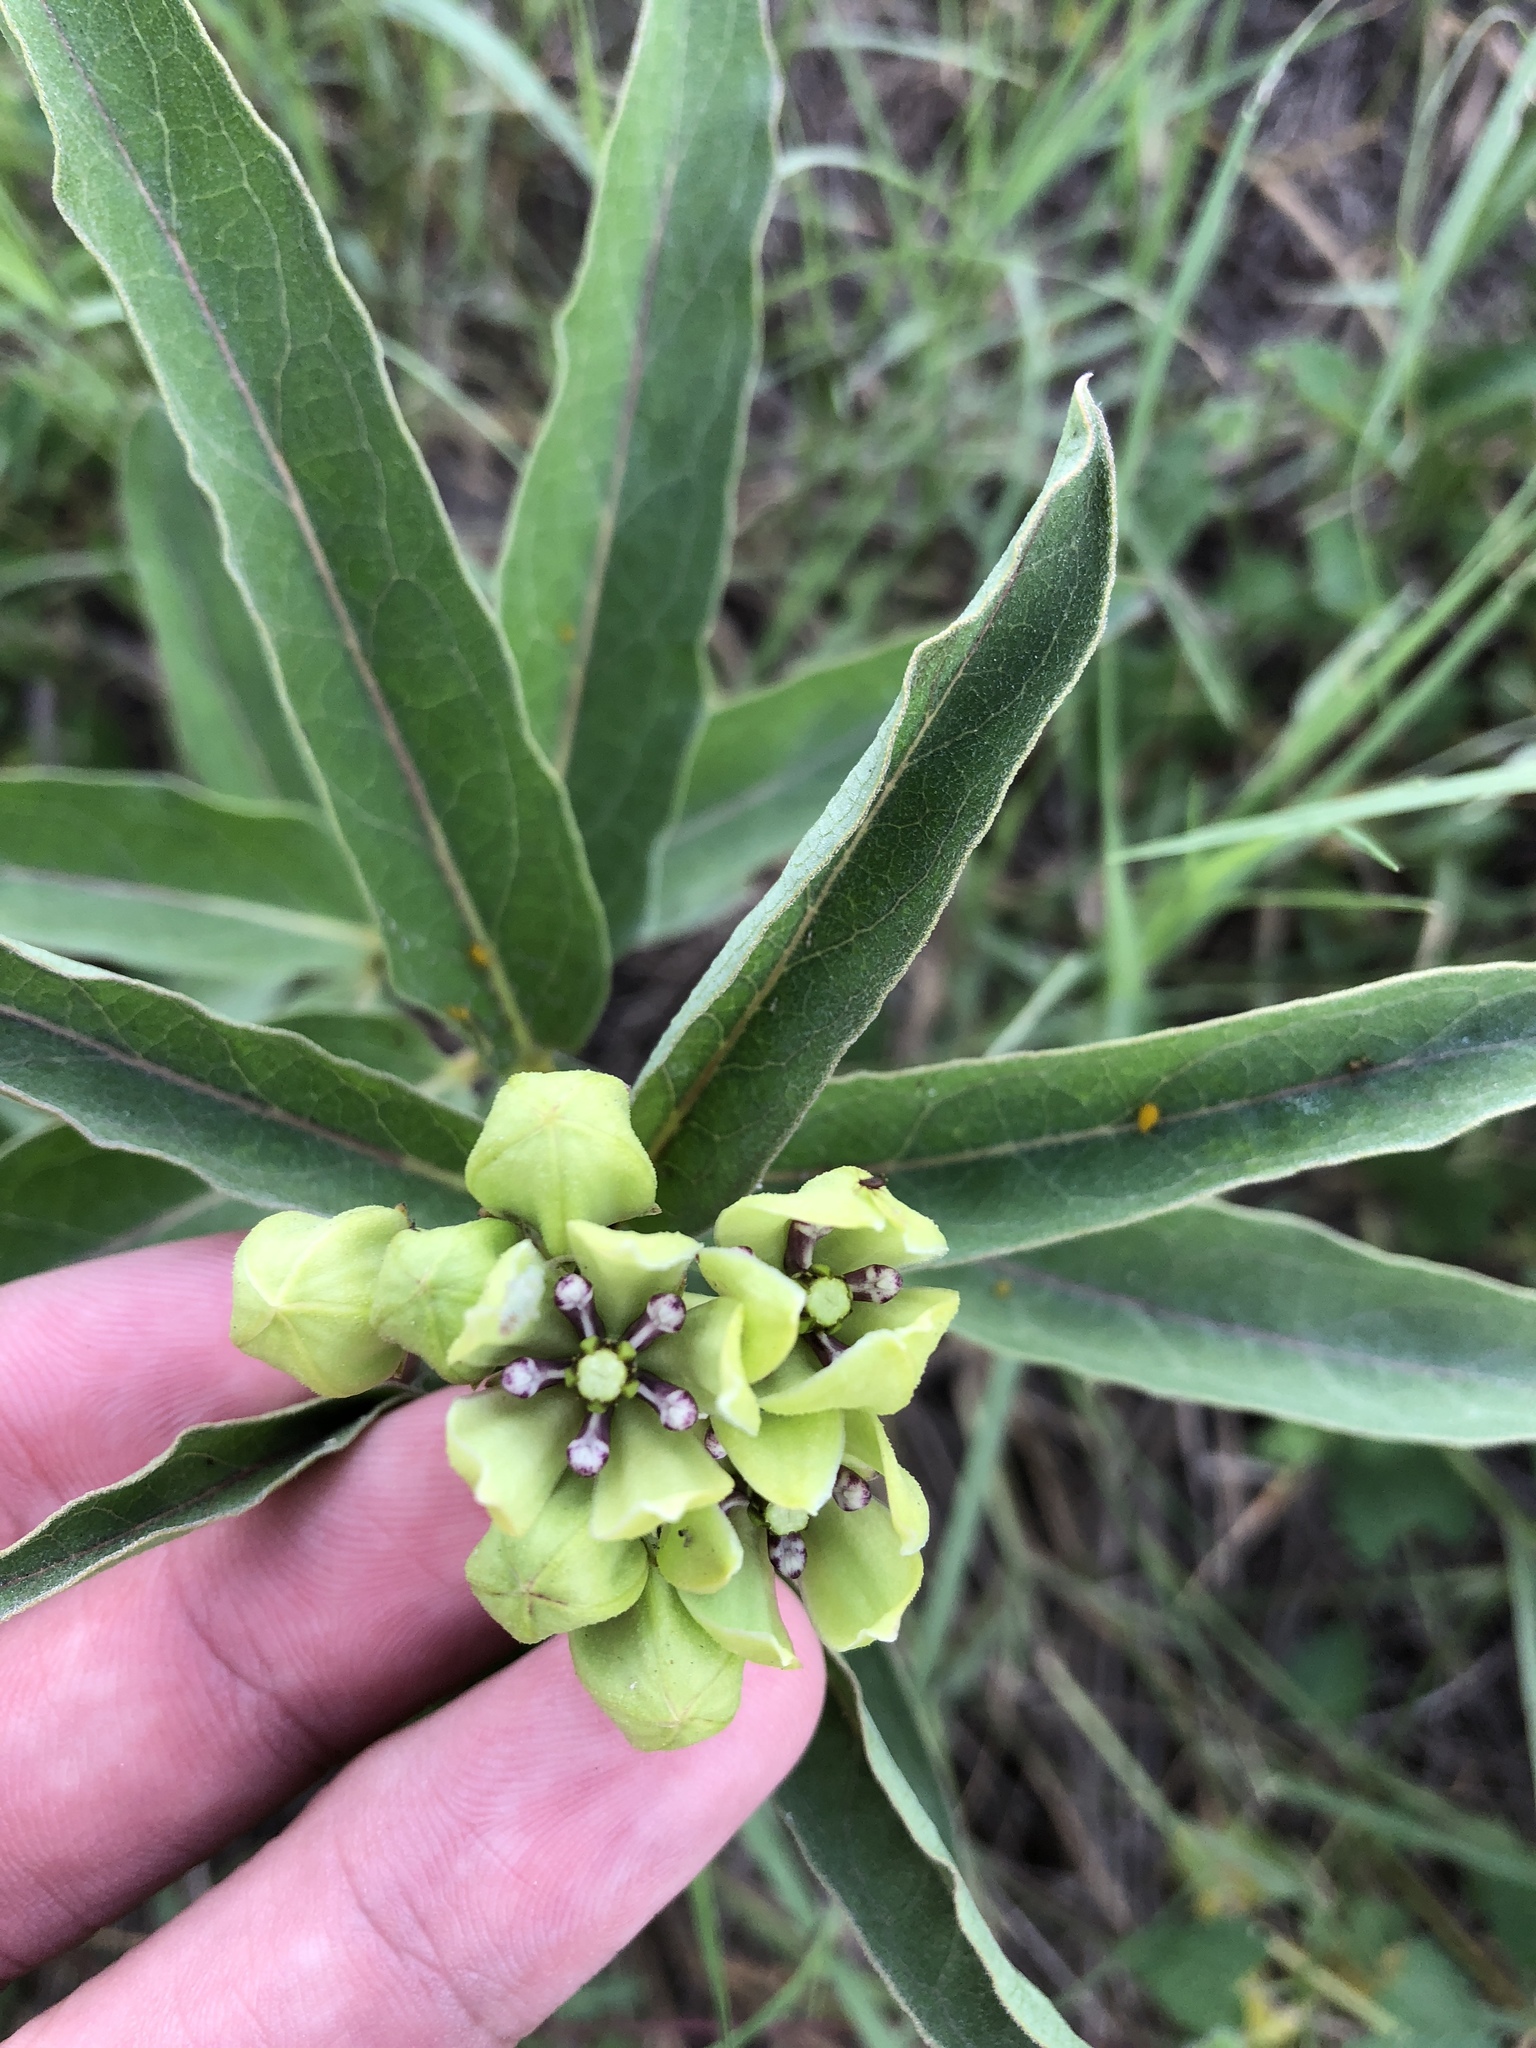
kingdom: Plantae
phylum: Tracheophyta
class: Magnoliopsida
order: Gentianales
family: Apocynaceae
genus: Asclepias
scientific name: Asclepias viridis
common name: Antelope-horns
